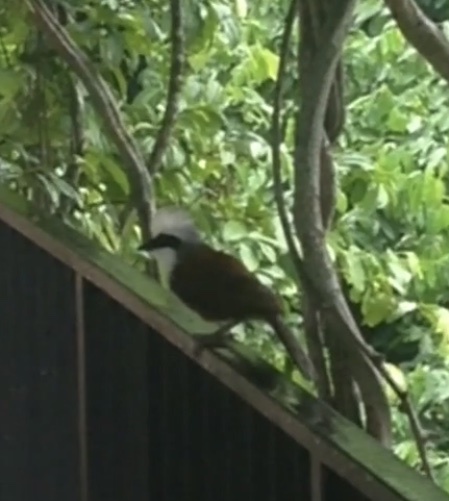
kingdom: Animalia
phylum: Chordata
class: Aves
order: Passeriformes
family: Leiothrichidae
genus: Garrulax
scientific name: Garrulax leucolophus
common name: White-crested laughingthrush
